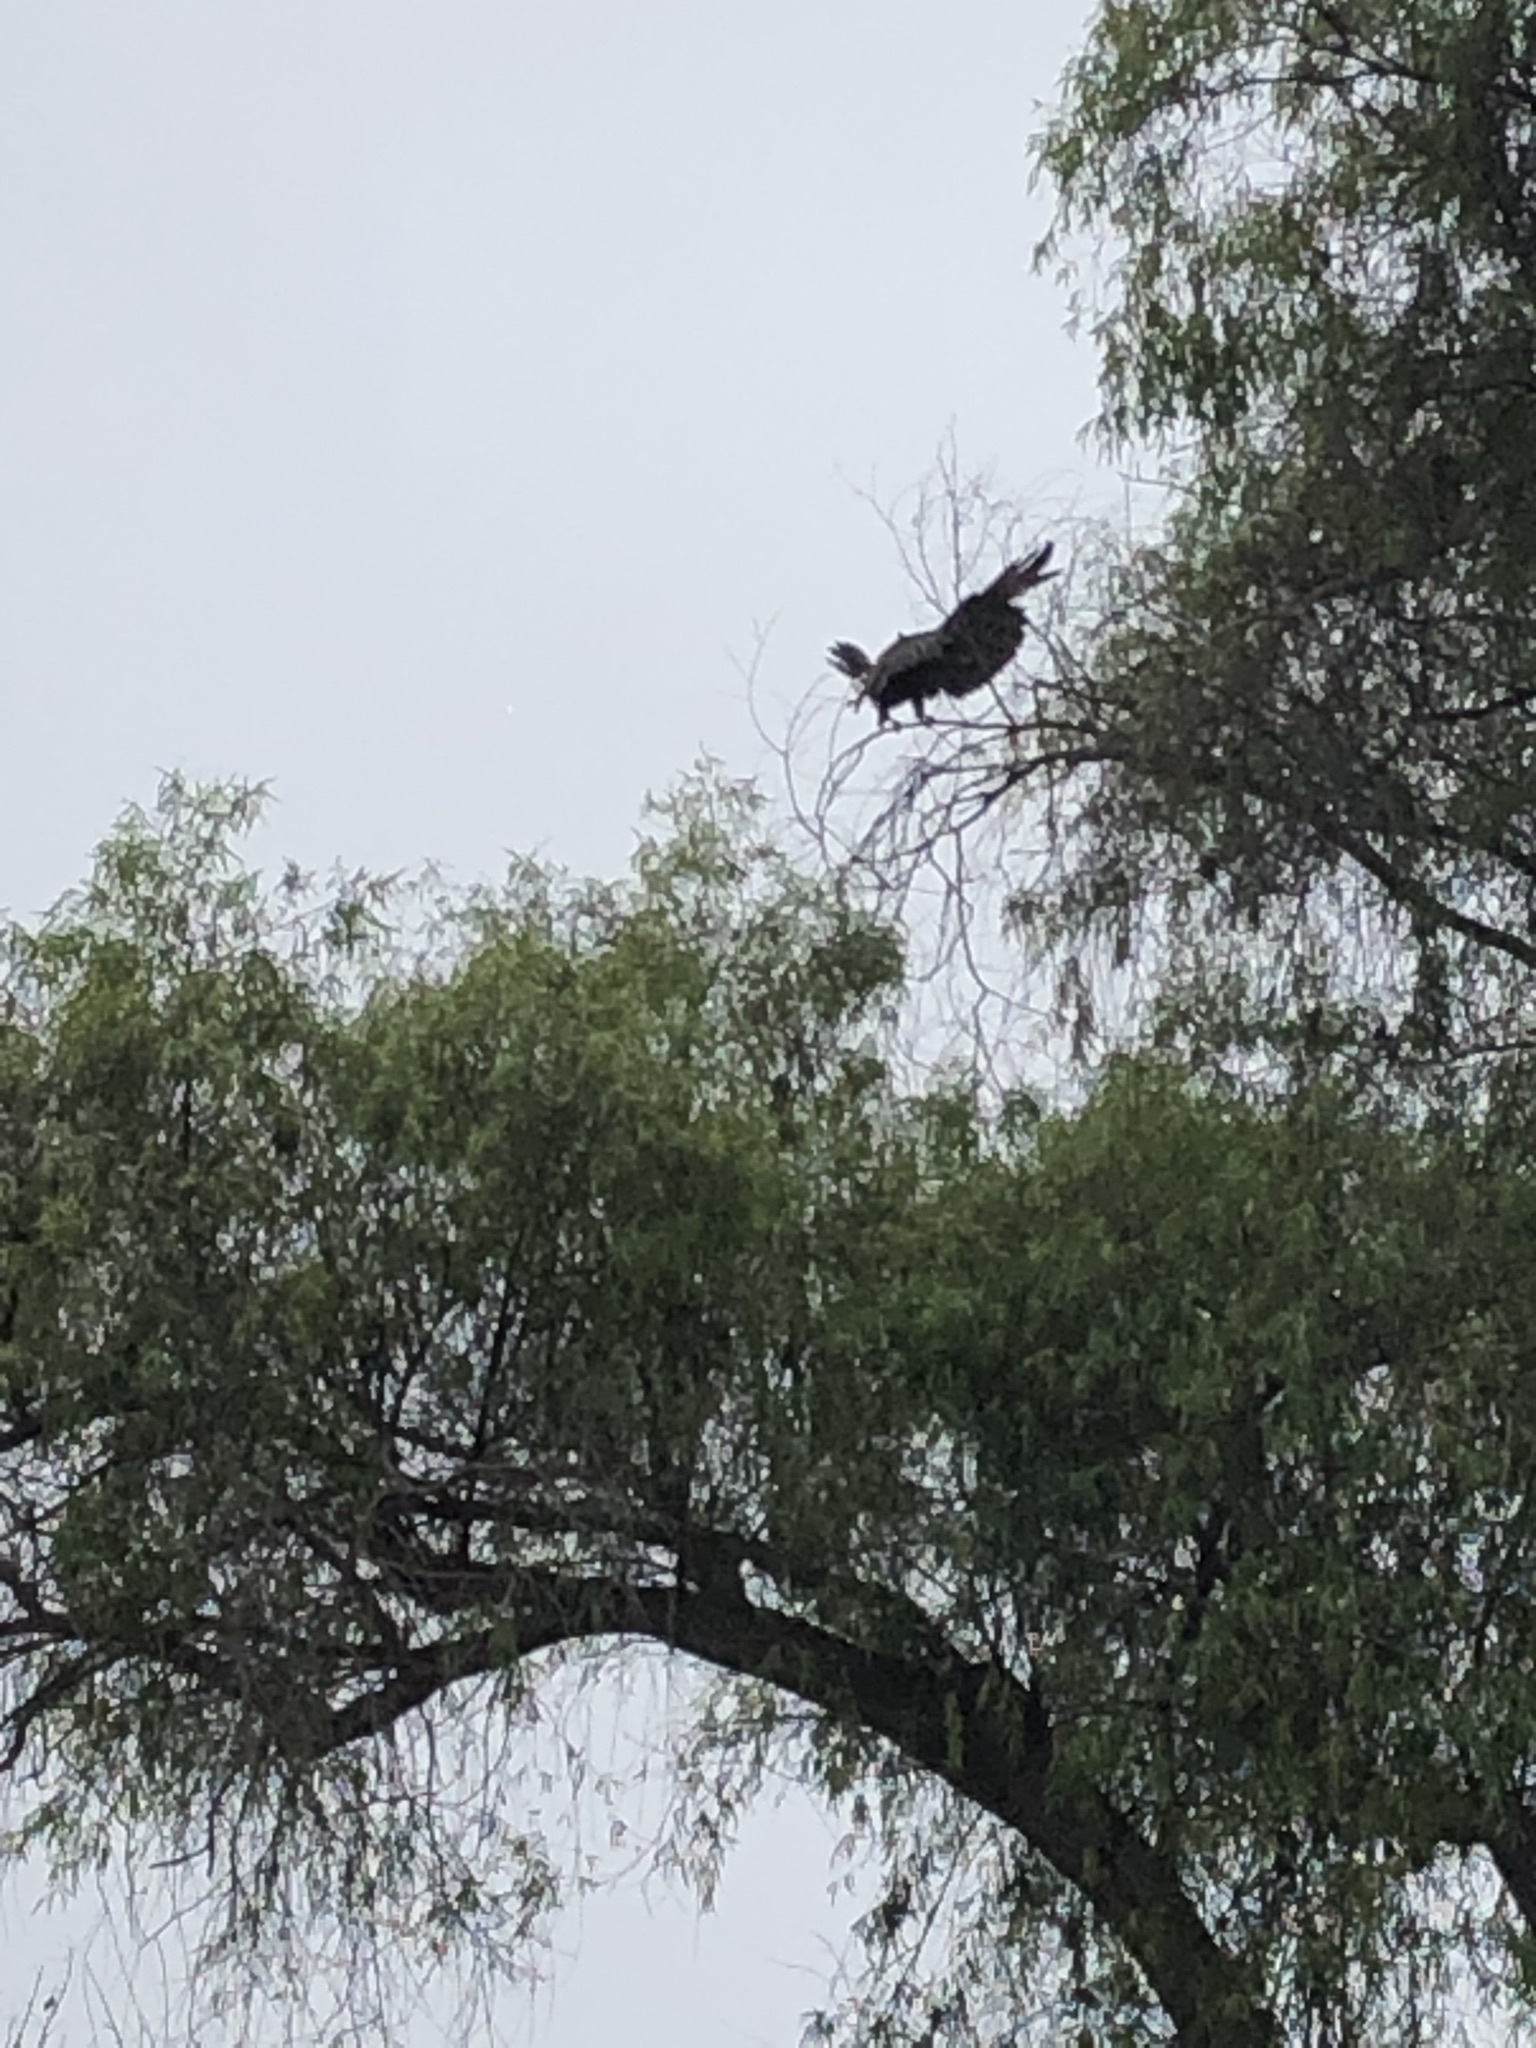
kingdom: Animalia
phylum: Chordata
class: Aves
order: Accipitriformes
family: Accipitridae
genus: Parabuteo
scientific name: Parabuteo unicinctus
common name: Harris's hawk
